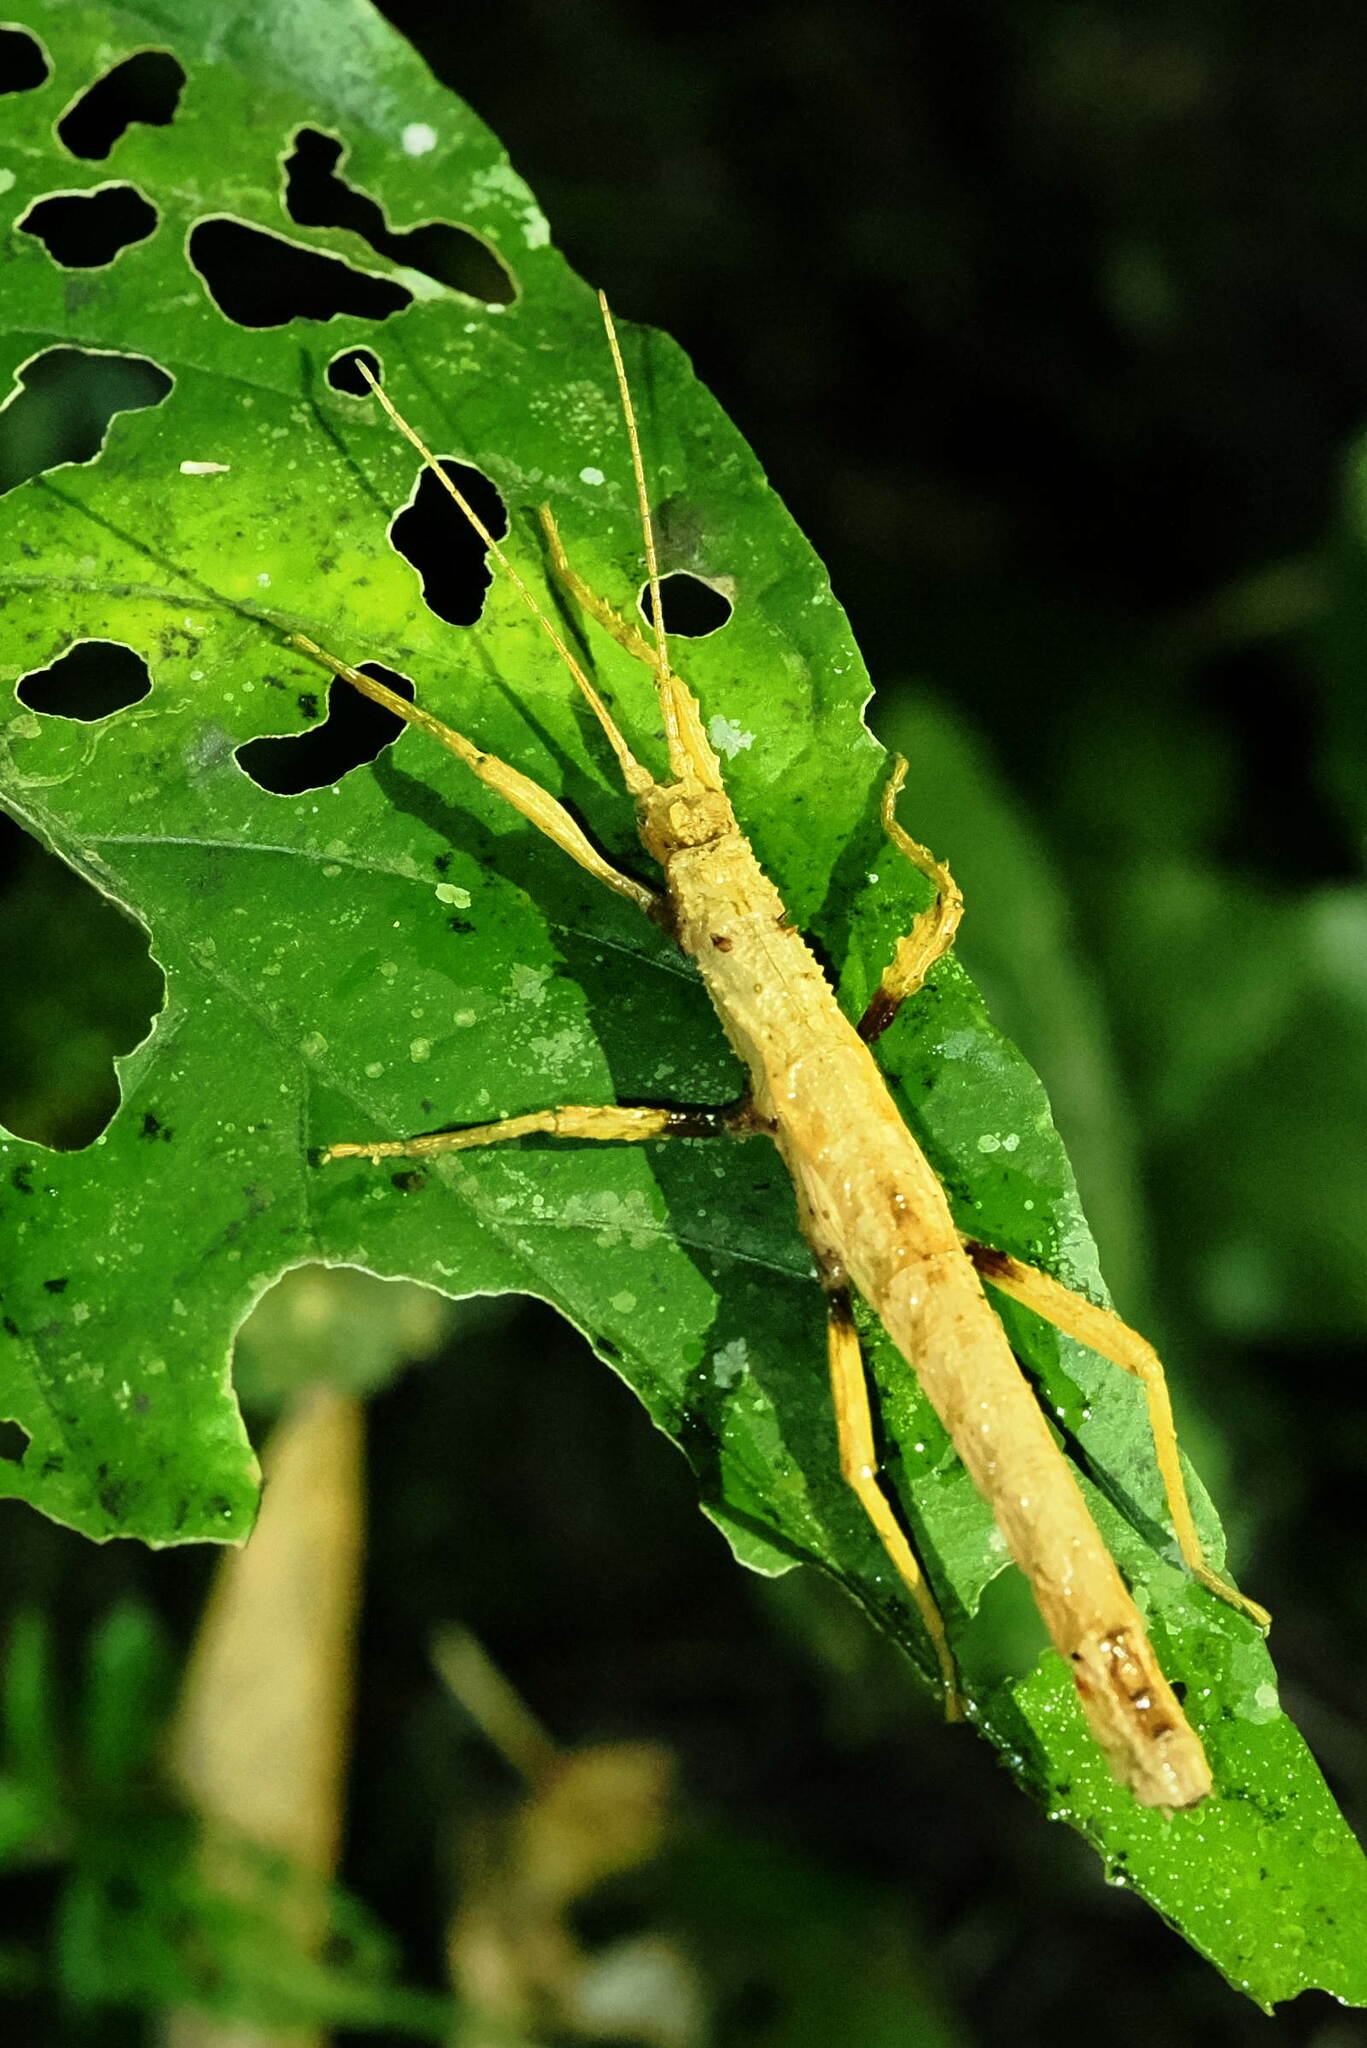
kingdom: Animalia
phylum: Arthropoda
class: Insecta
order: Phasmida
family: Pseudophasmatidae
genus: Creoxylus
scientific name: Creoxylus spinosus
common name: Trinidad log stick insect
